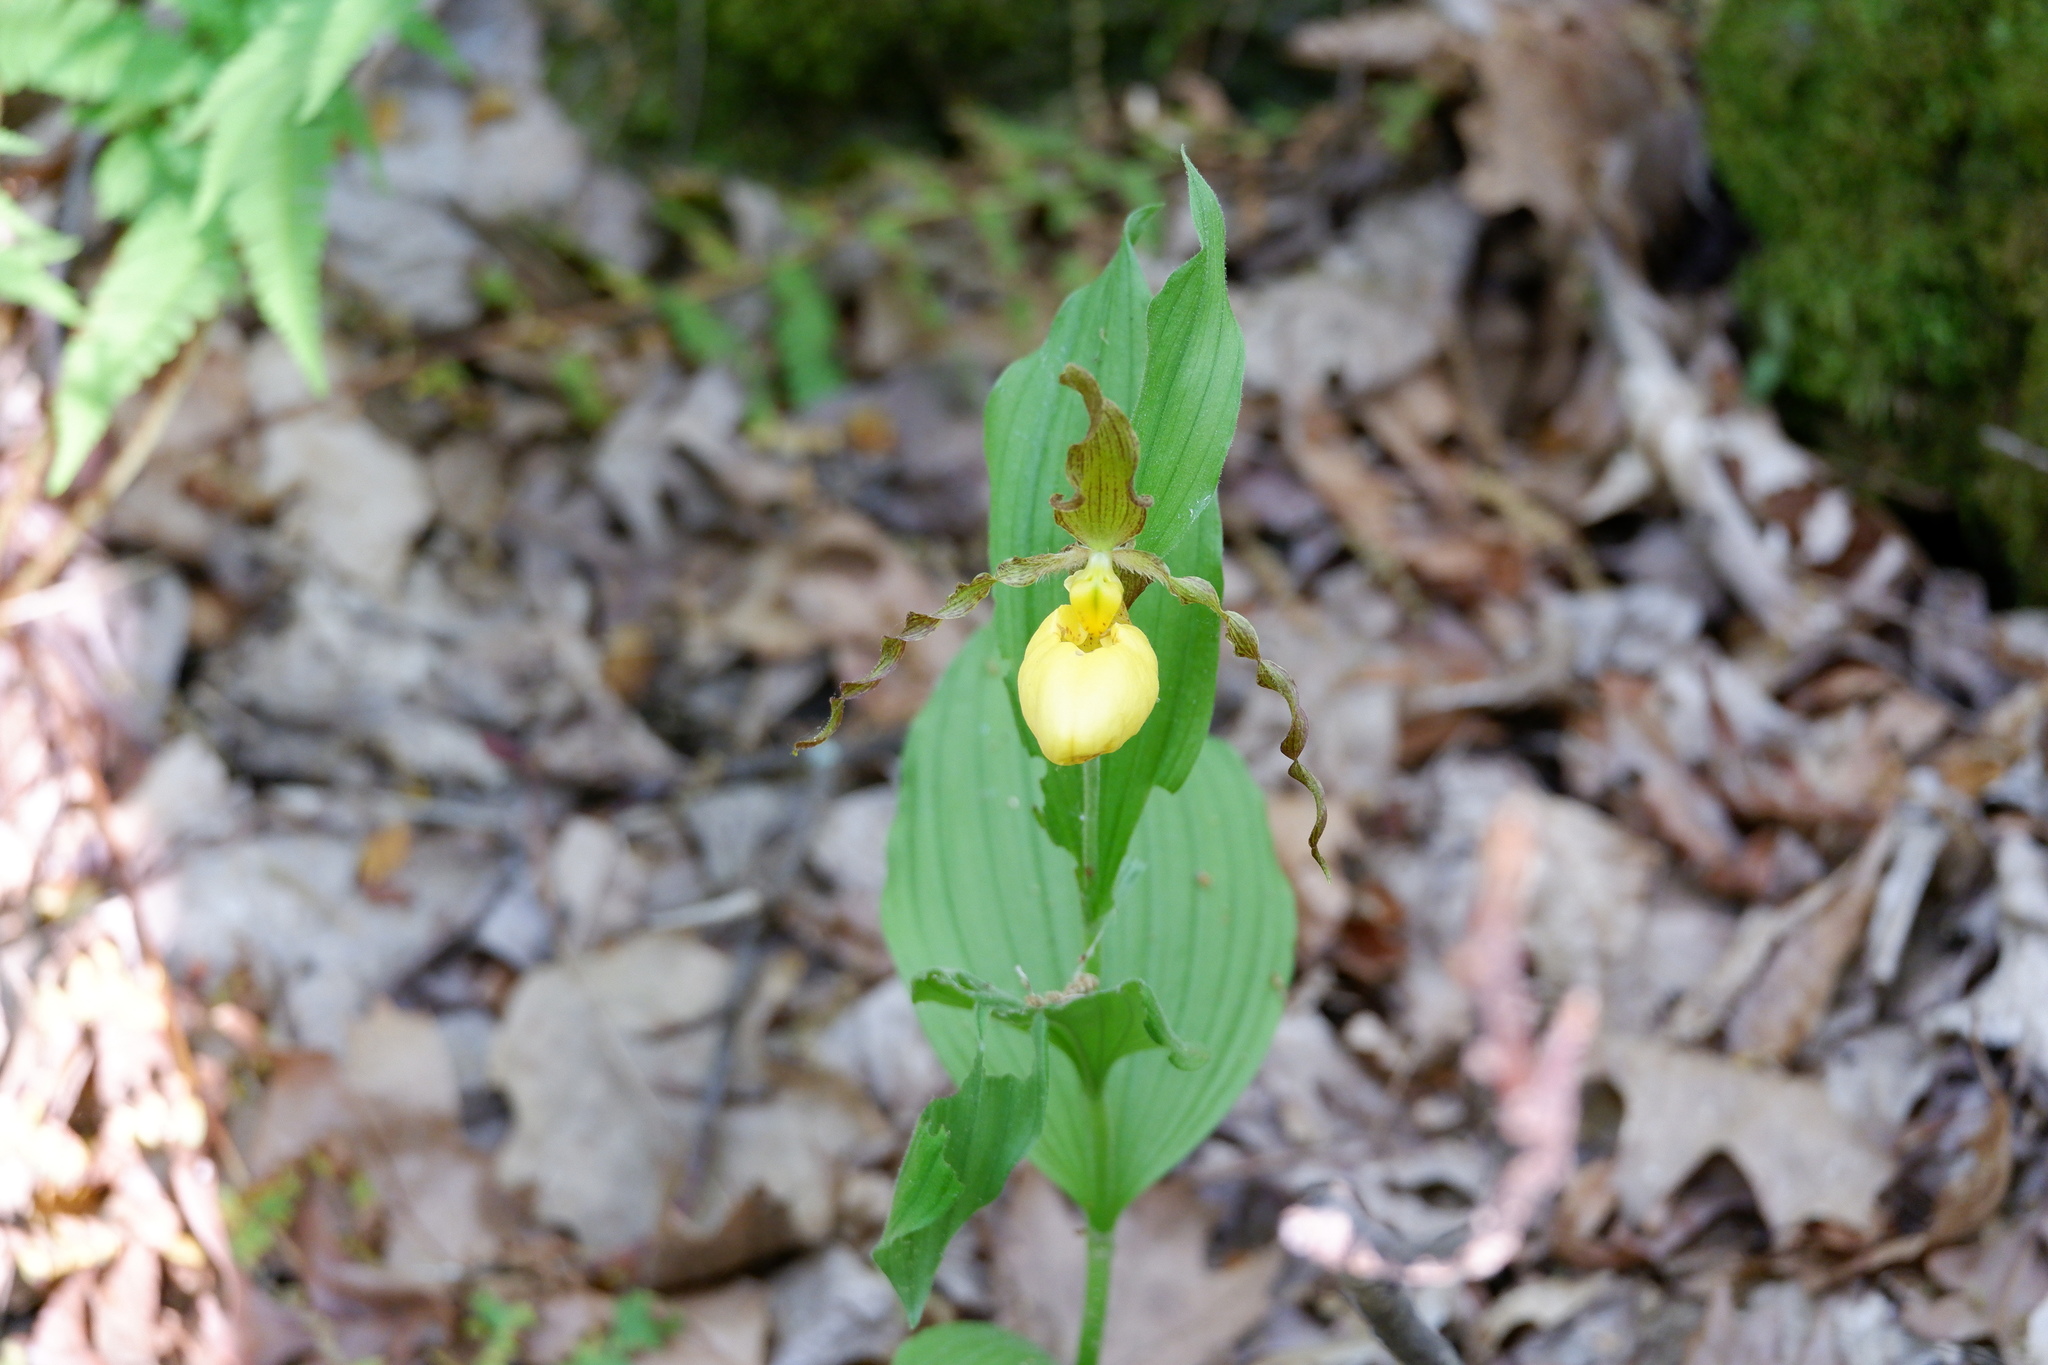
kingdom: Plantae
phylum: Tracheophyta
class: Liliopsida
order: Asparagales
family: Orchidaceae
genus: Cypripedium
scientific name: Cypripedium parviflorum
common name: American yellow lady's-slipper
